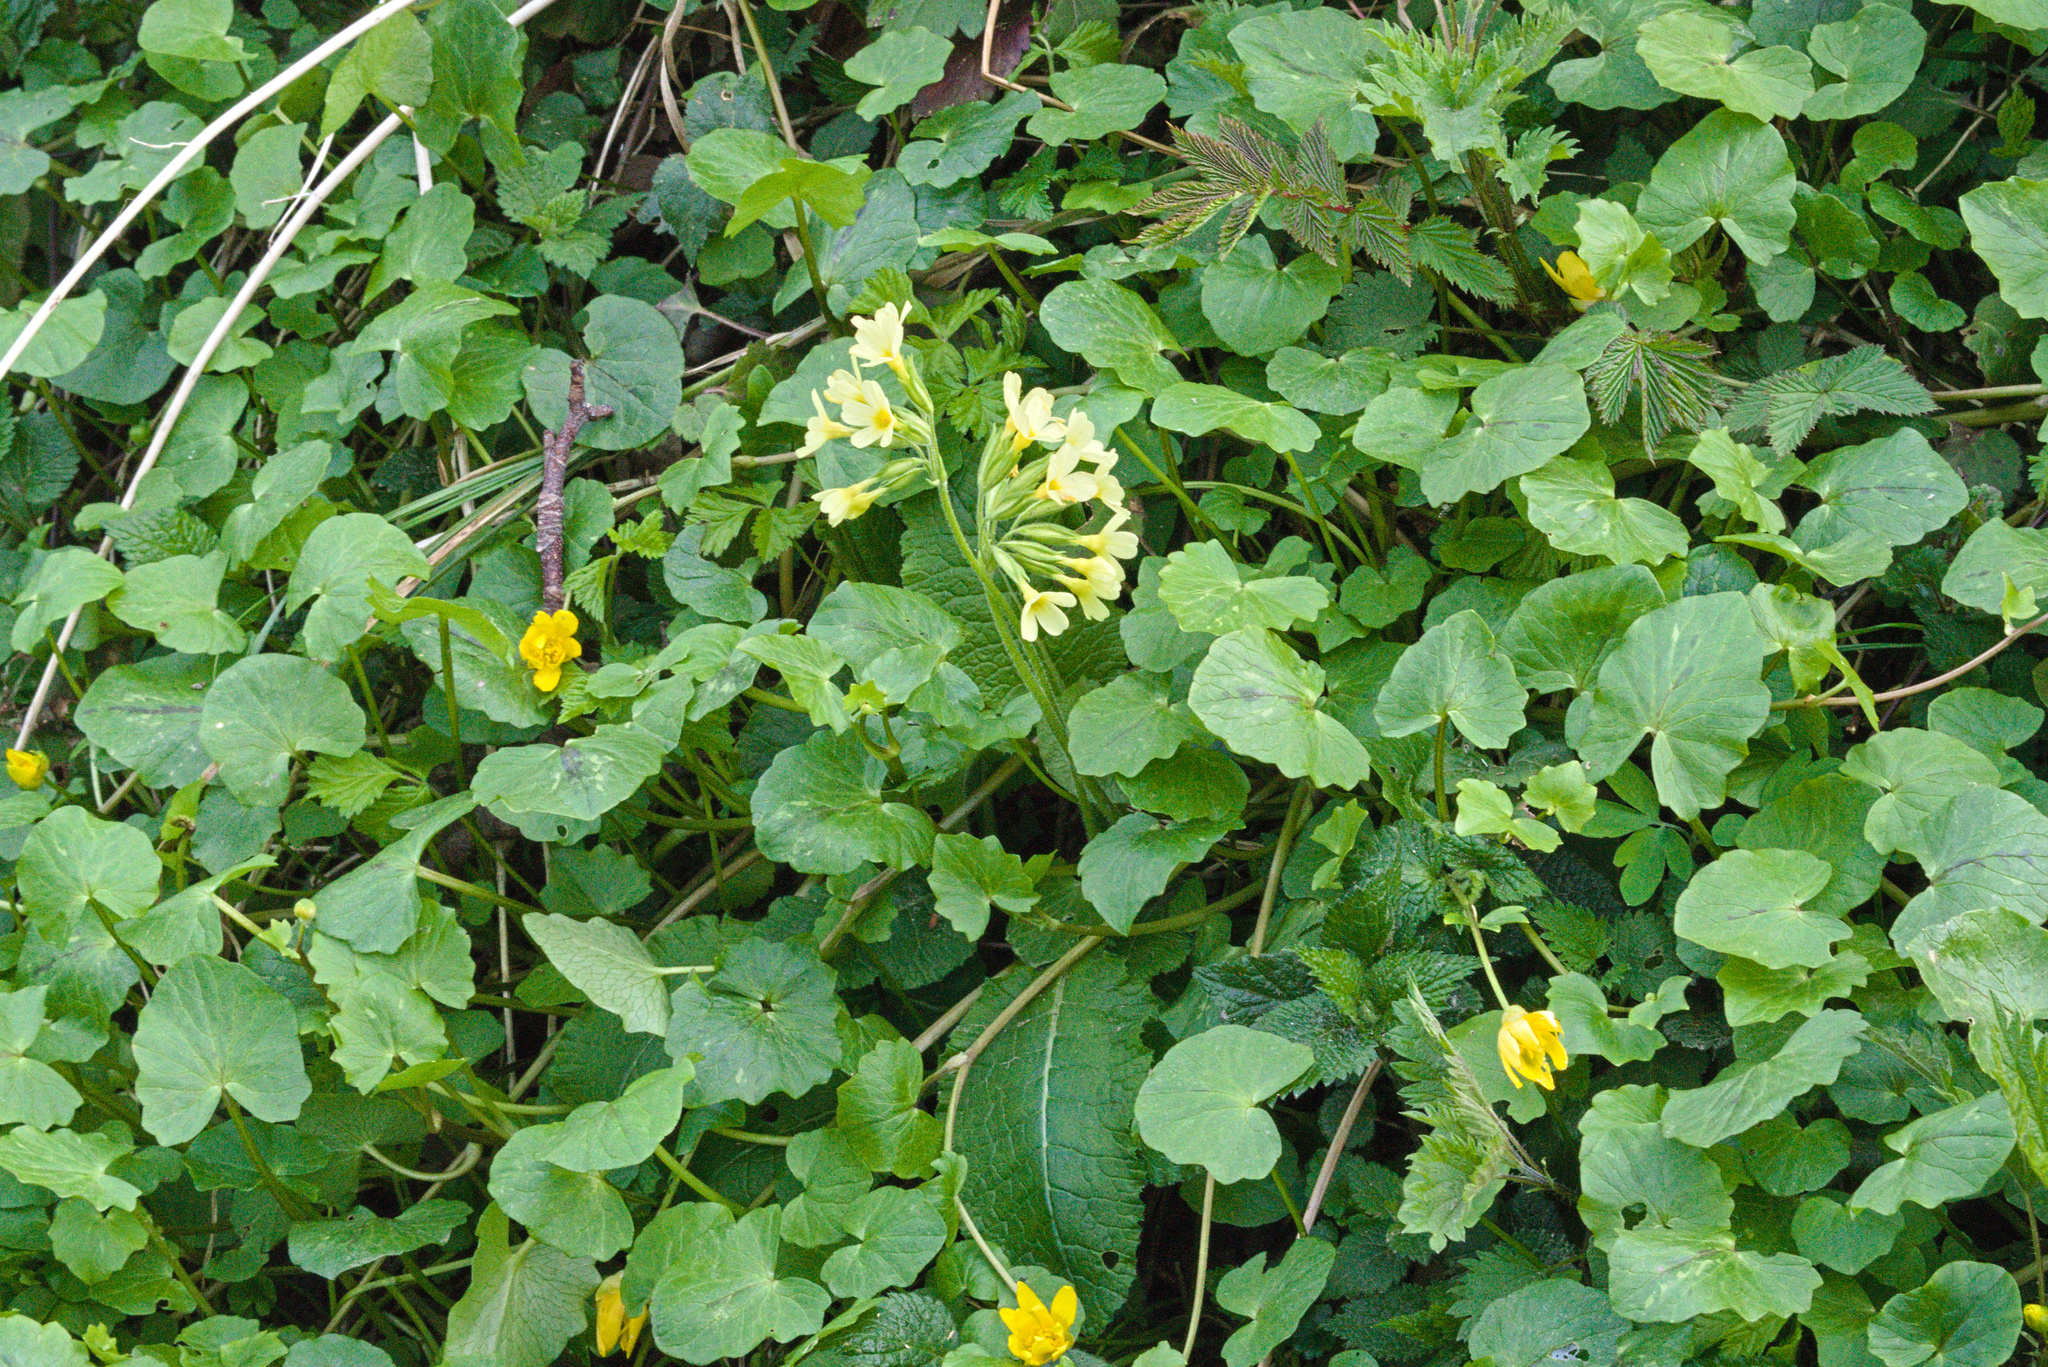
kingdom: Plantae
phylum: Tracheophyta
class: Magnoliopsida
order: Ericales
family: Primulaceae
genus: Primula
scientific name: Primula elatior
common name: Oxlip
